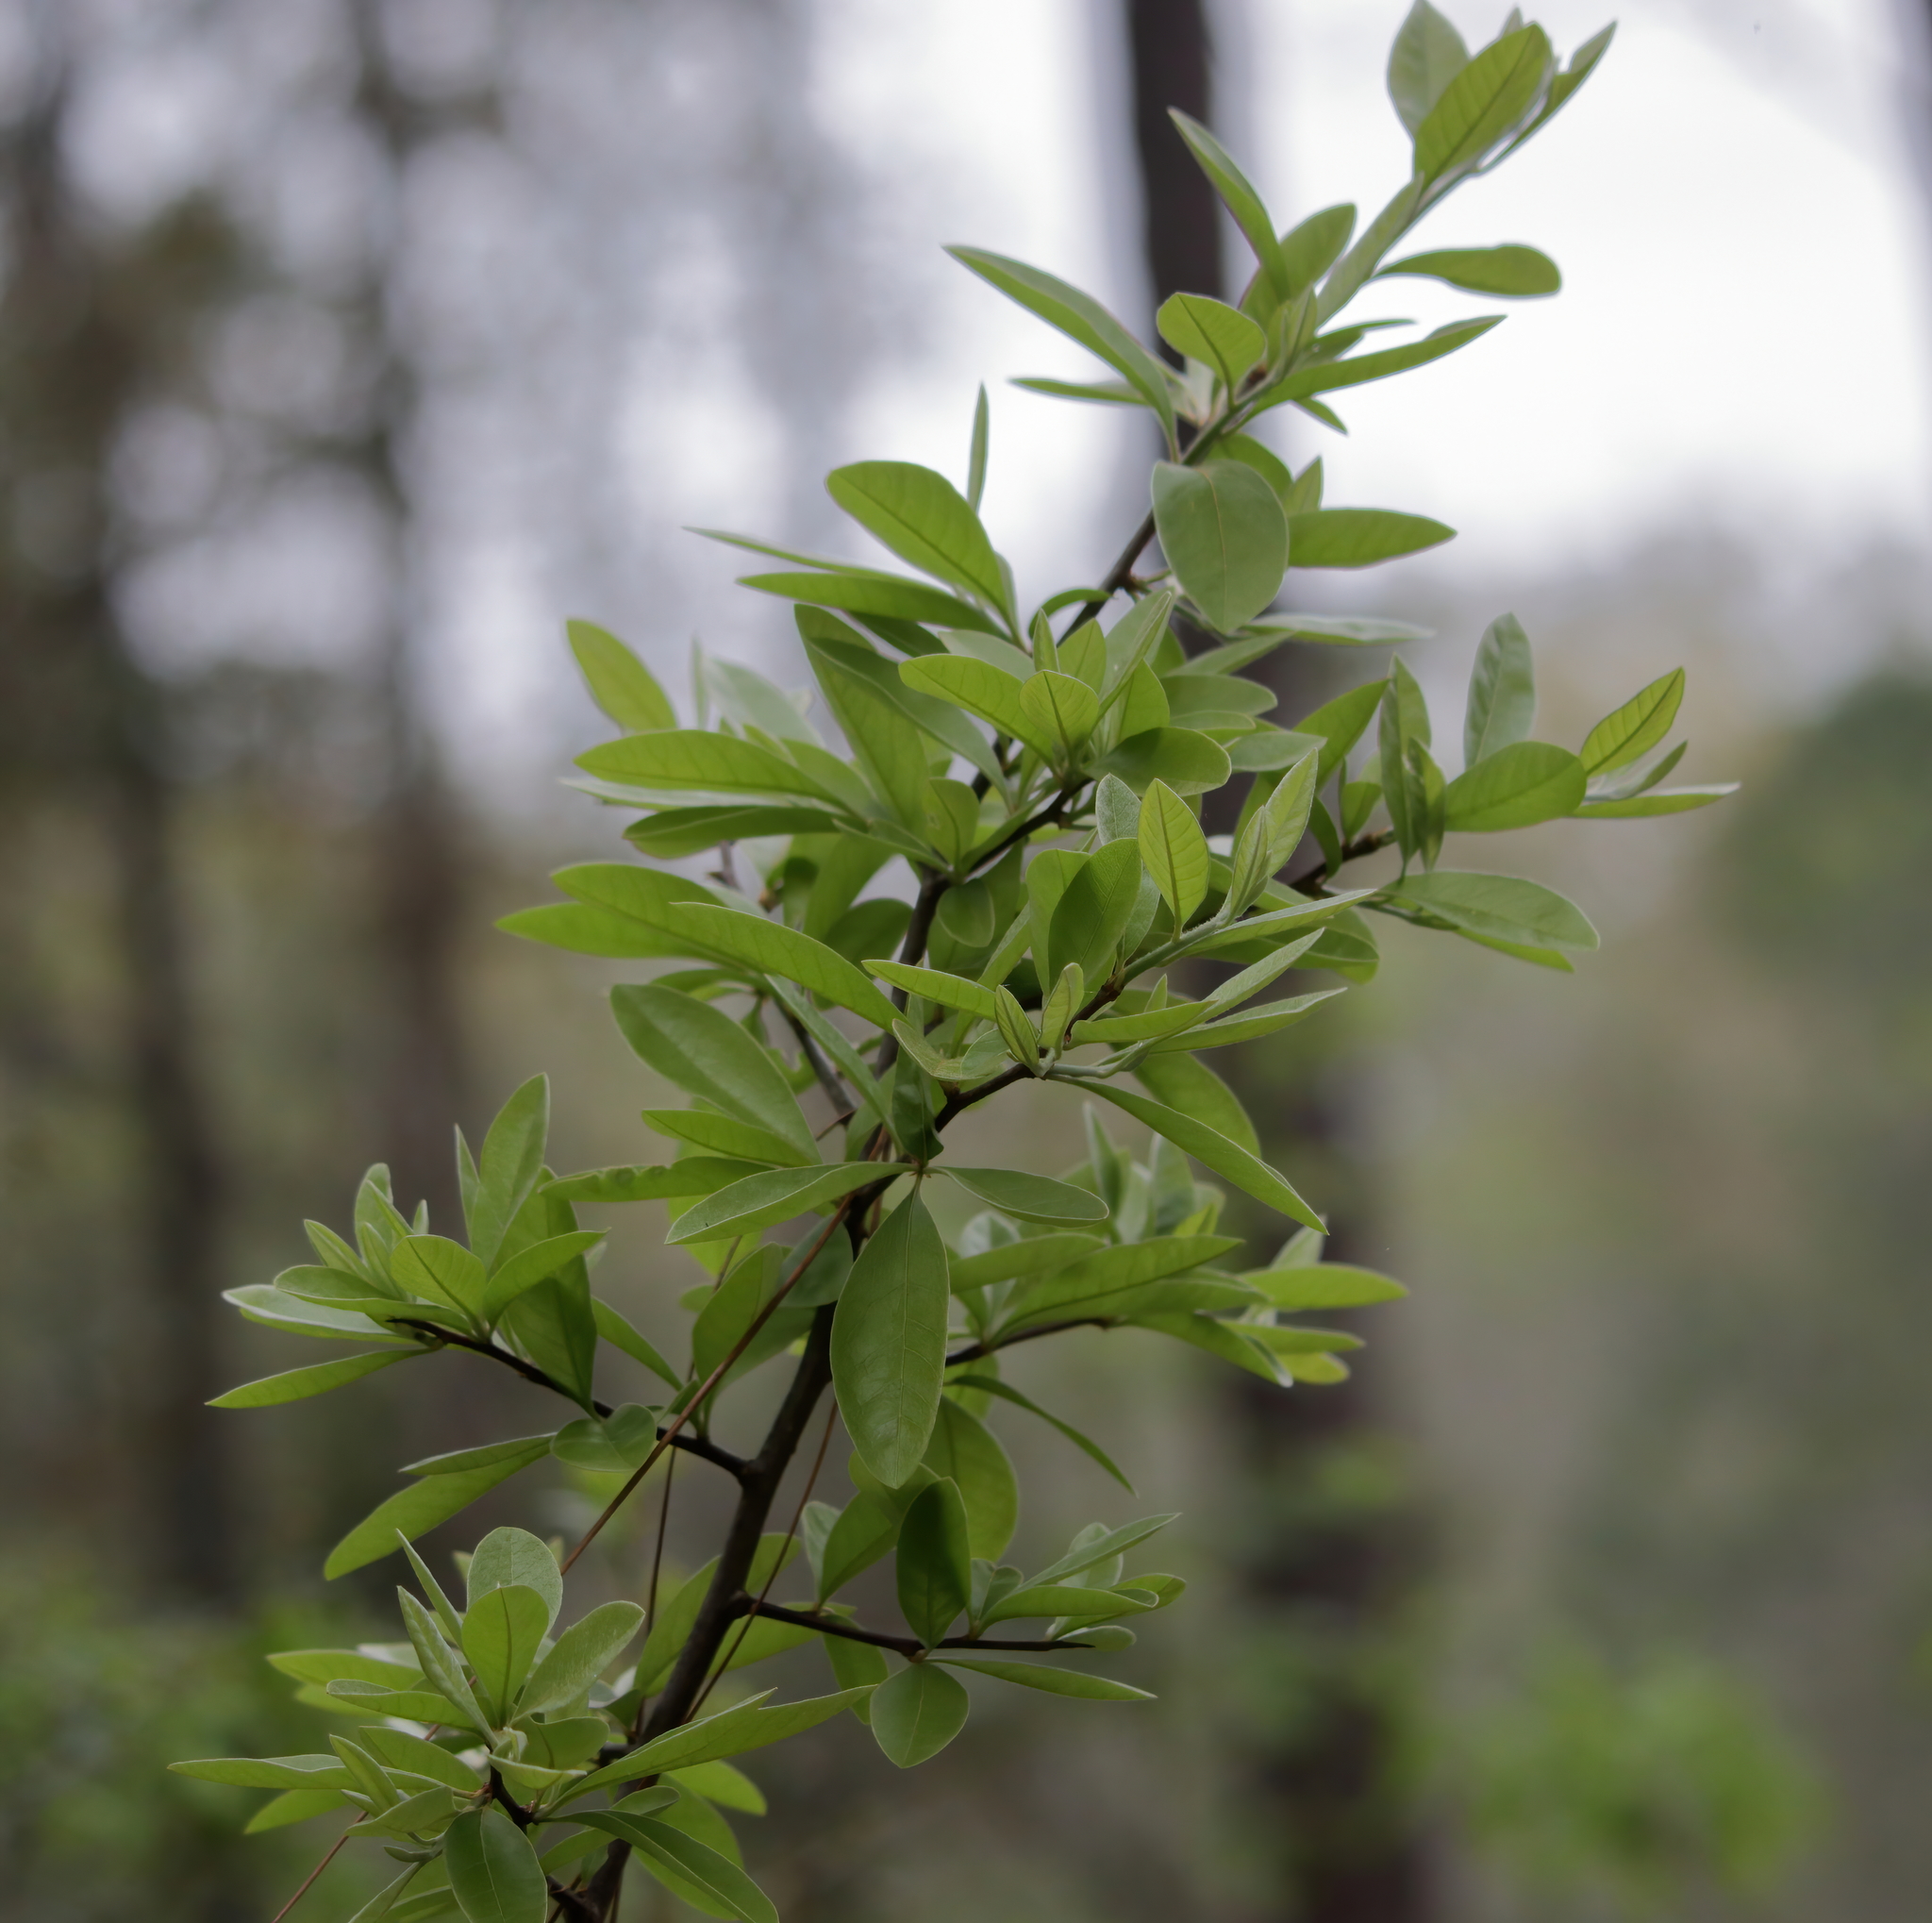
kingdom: Plantae
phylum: Tracheophyta
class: Magnoliopsida
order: Ericales
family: Sapotaceae
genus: Sideroxylon
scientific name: Sideroxylon lanuginosum
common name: Chittamwood
